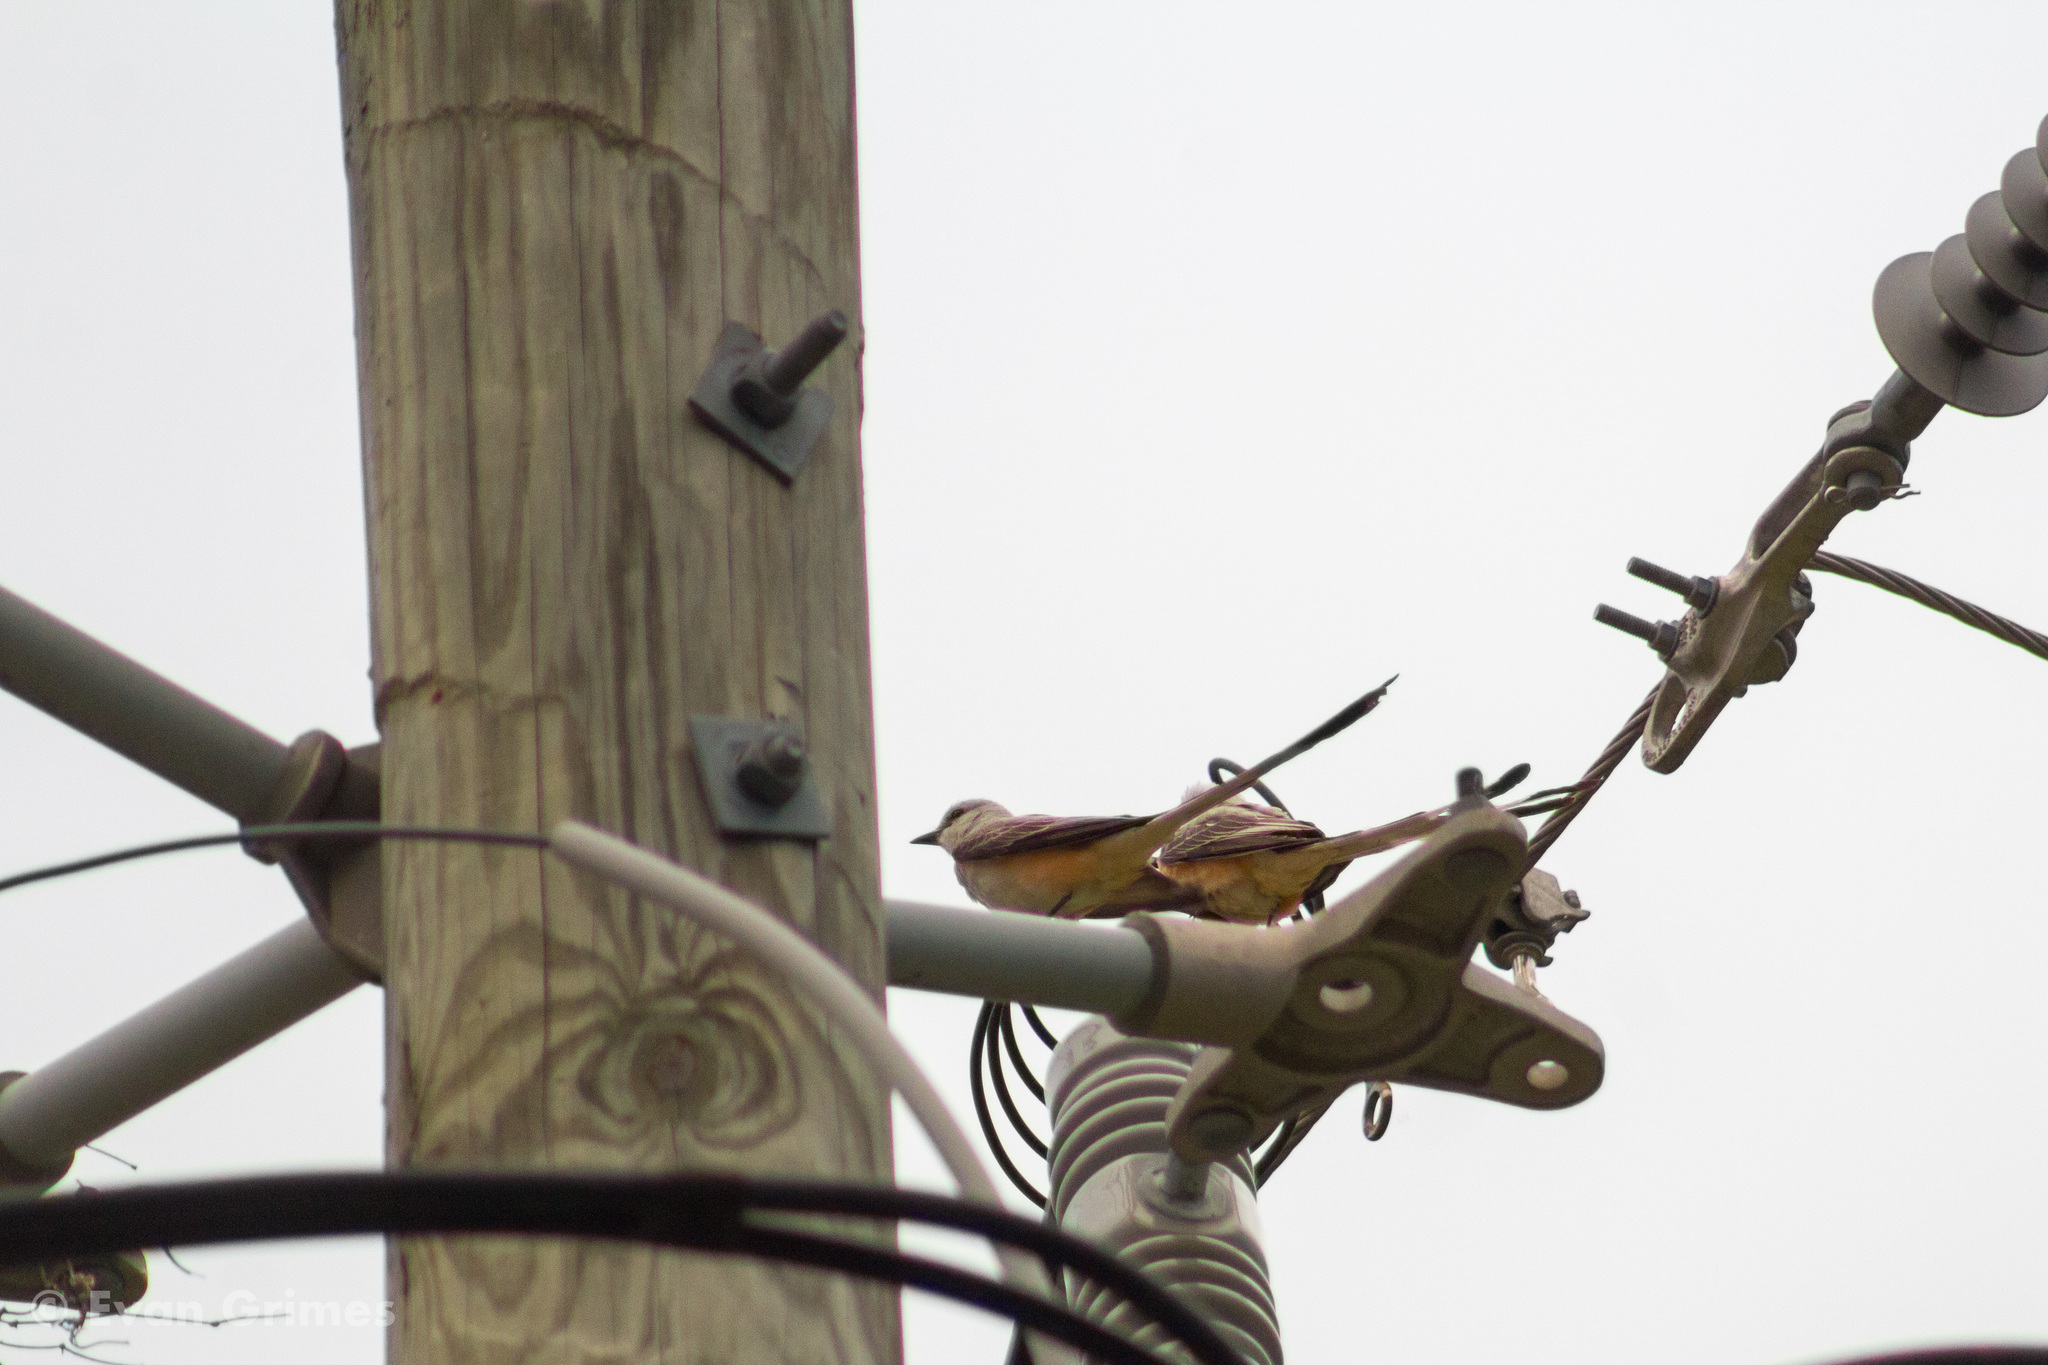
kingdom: Animalia
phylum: Chordata
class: Aves
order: Passeriformes
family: Tyrannidae
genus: Tyrannus
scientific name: Tyrannus forficatus
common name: Scissor-tailed flycatcher
